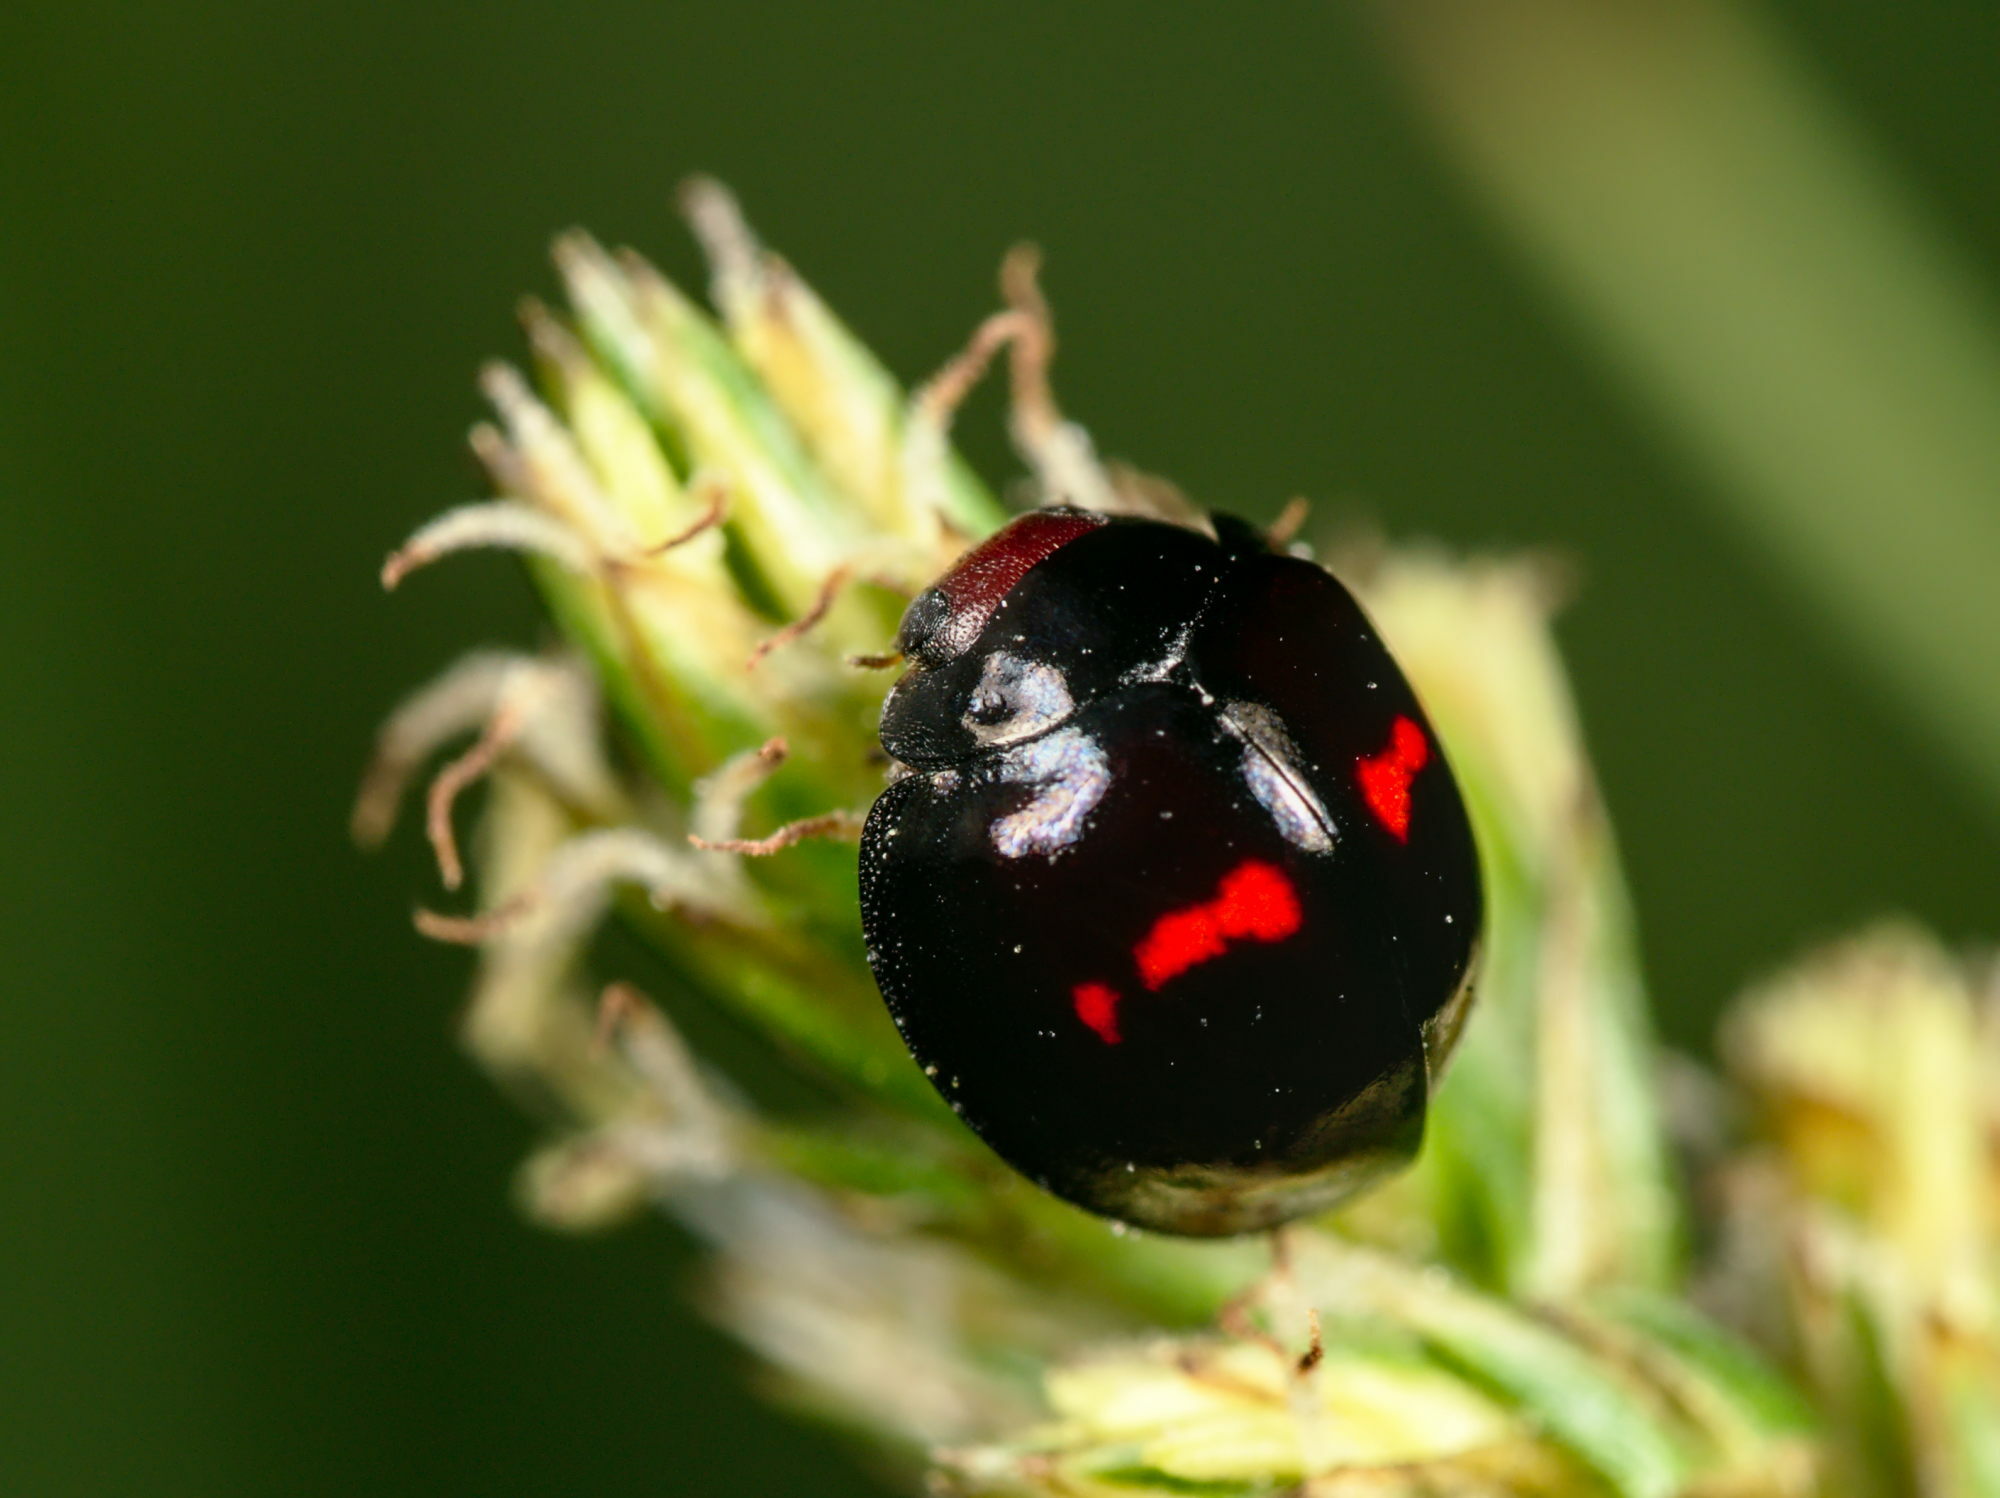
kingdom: Animalia
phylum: Arthropoda
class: Insecta
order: Coleoptera
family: Coccinellidae
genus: Chilocorus
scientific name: Chilocorus bipustulatus
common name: Heather ladybird
